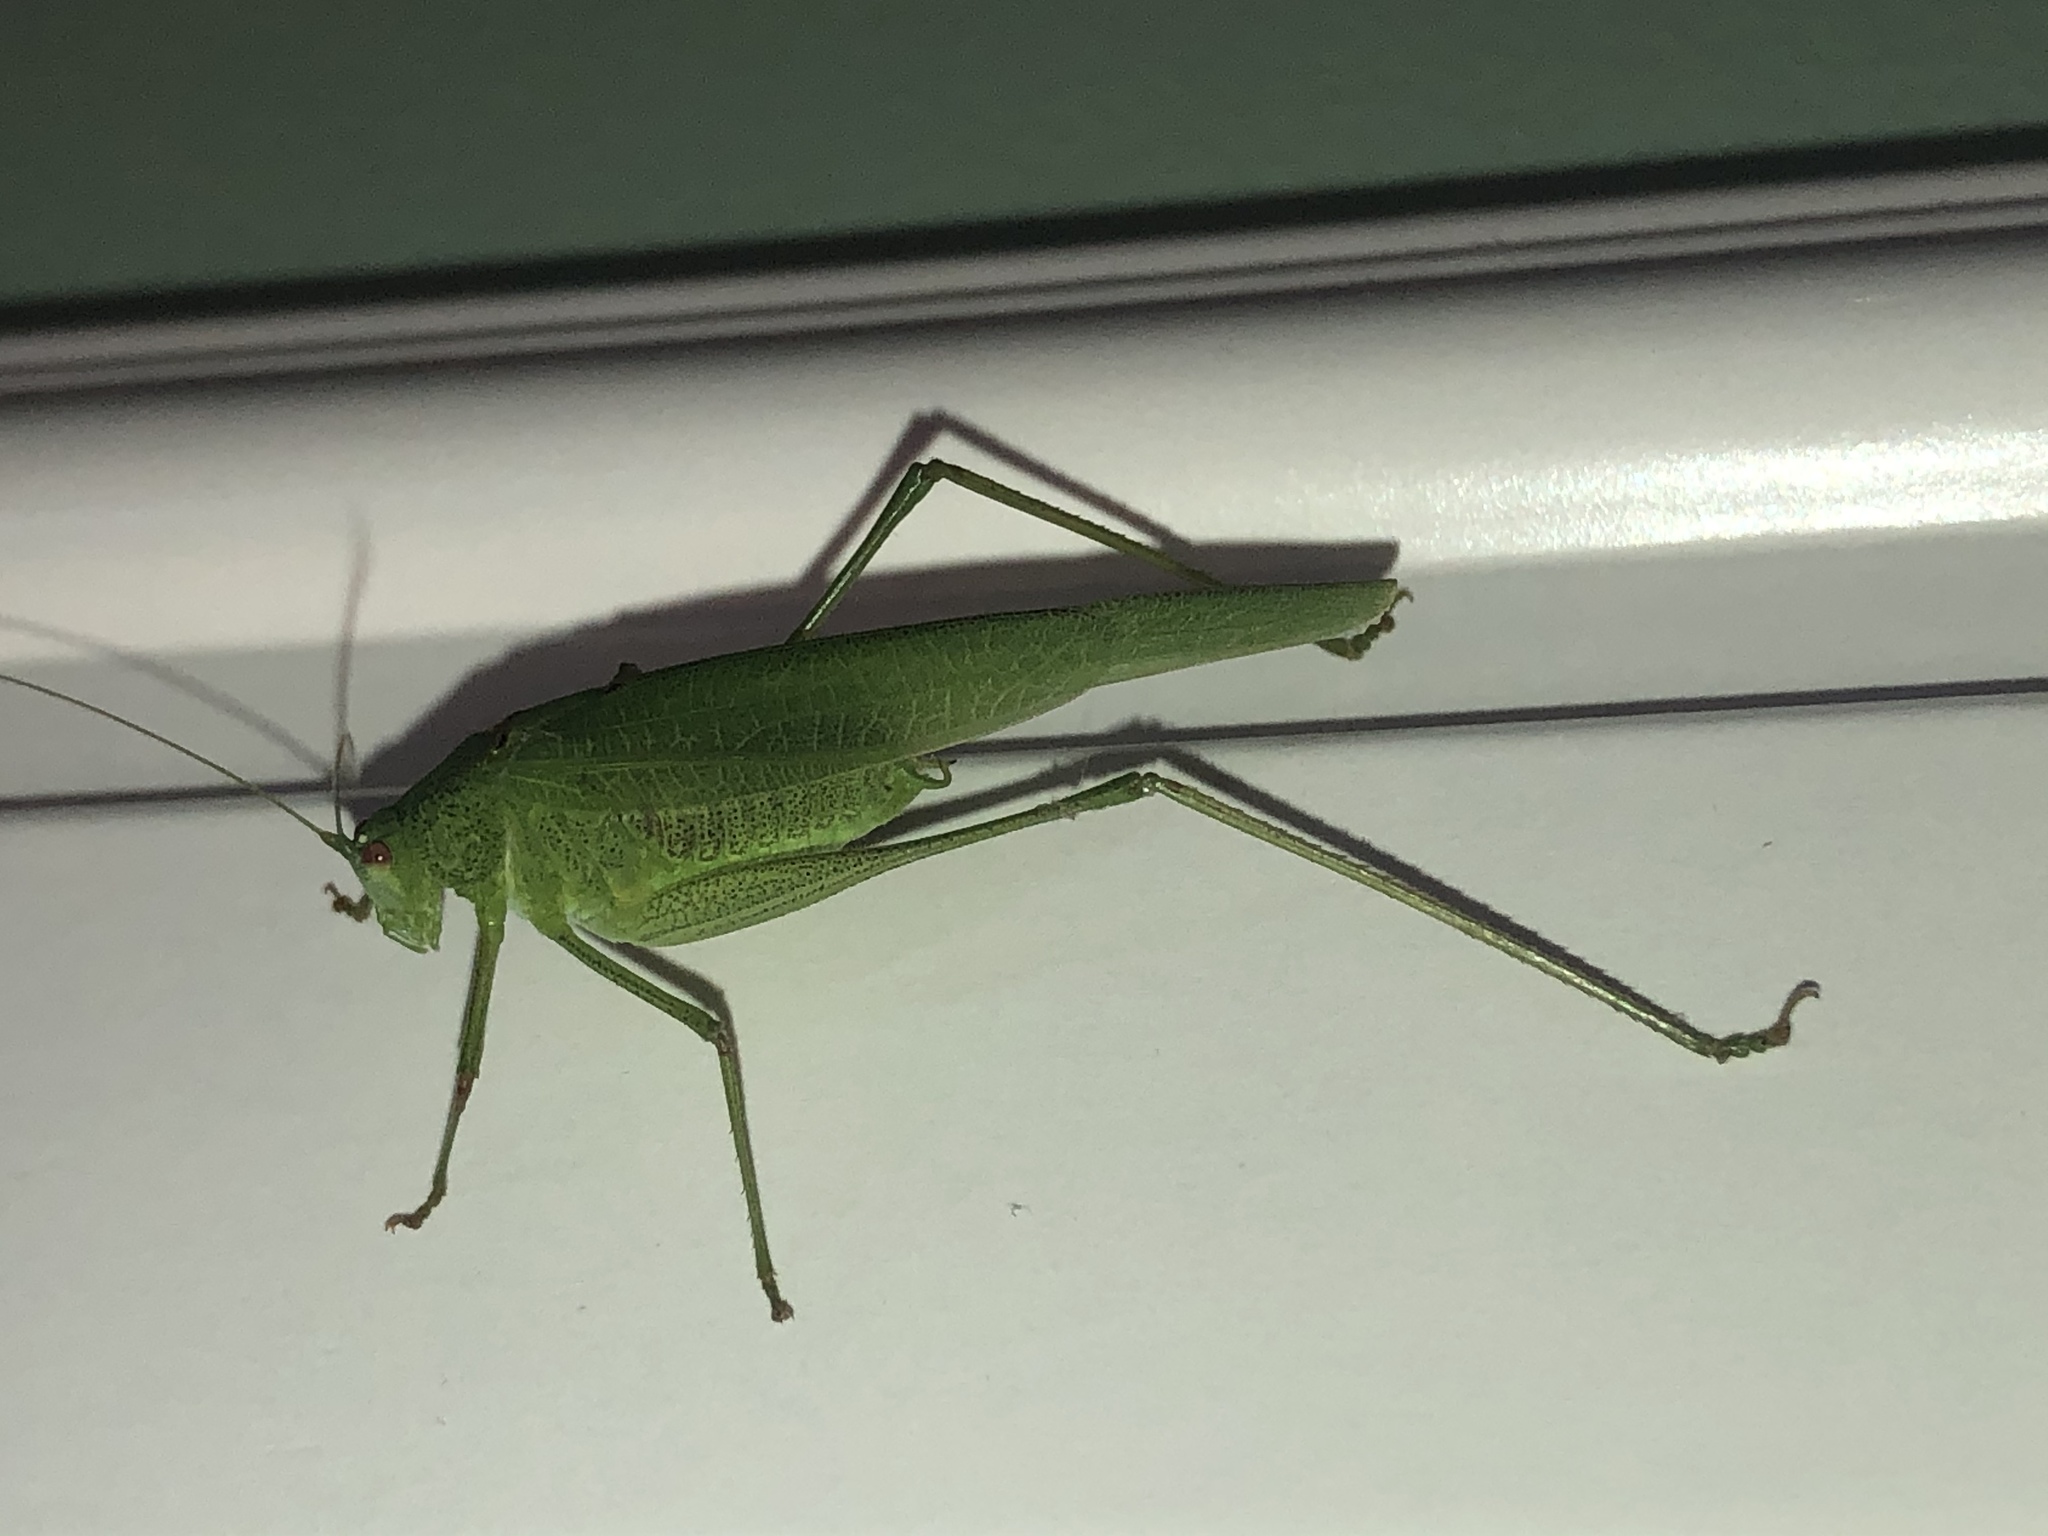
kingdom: Animalia
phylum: Arthropoda
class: Insecta
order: Orthoptera
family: Tettigoniidae
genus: Phaneroptera
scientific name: Phaneroptera nana
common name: Southern sickle bush-cricket
